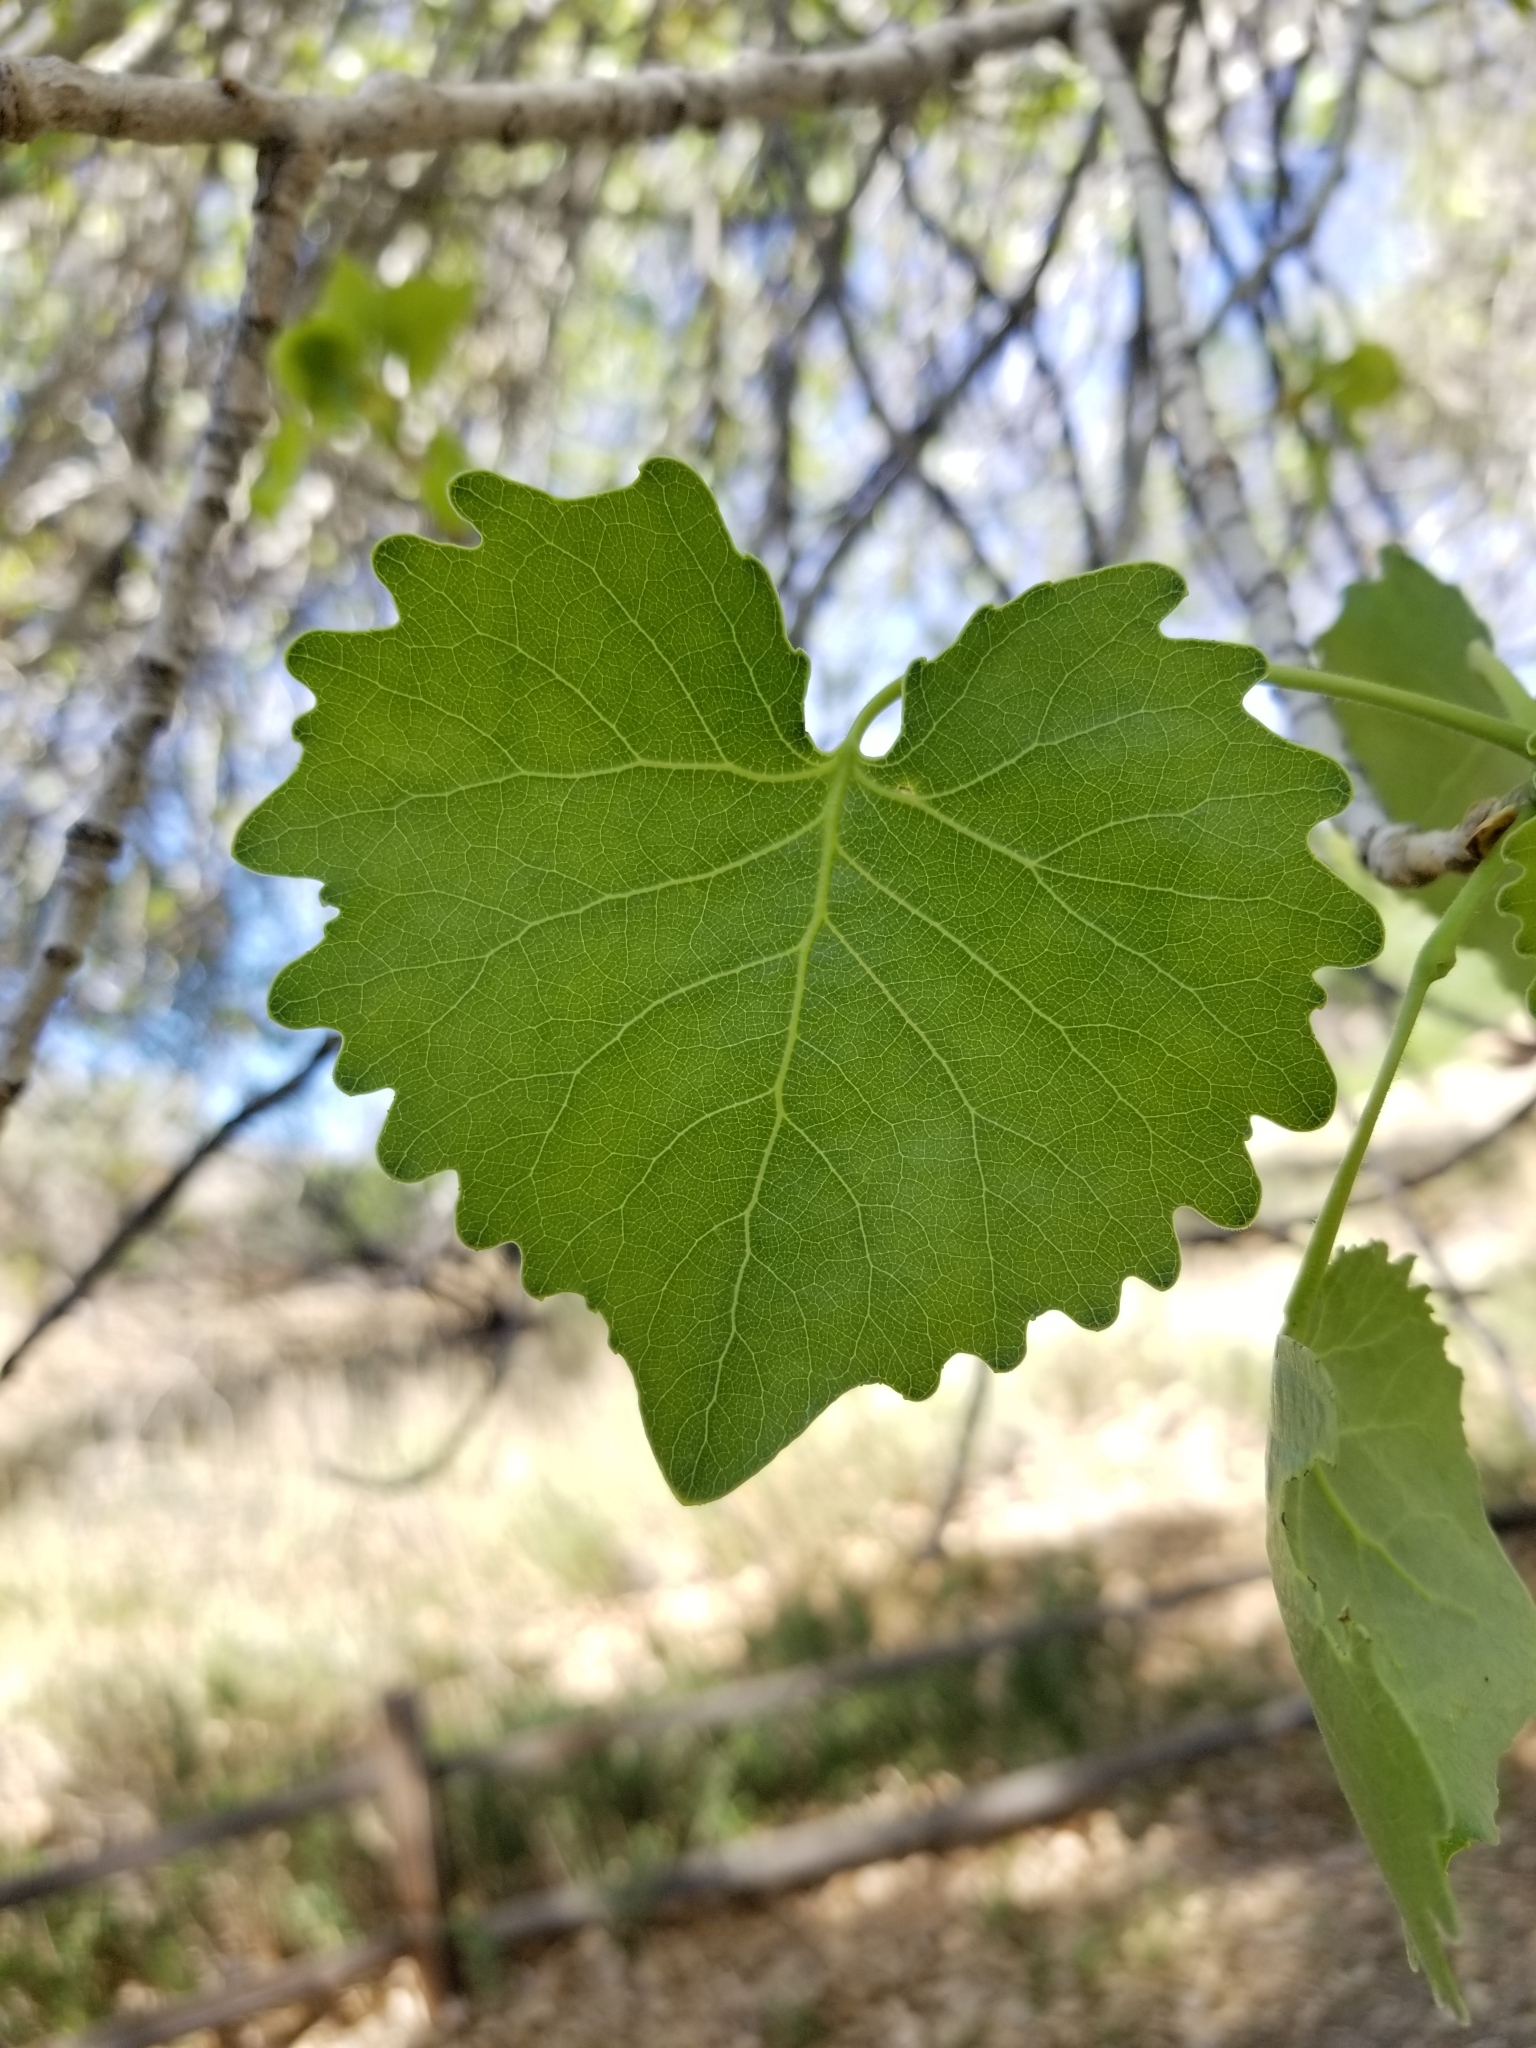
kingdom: Plantae
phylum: Tracheophyta
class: Magnoliopsida
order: Malpighiales
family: Salicaceae
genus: Populus
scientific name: Populus fremontii
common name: Fremont's cottonwood
